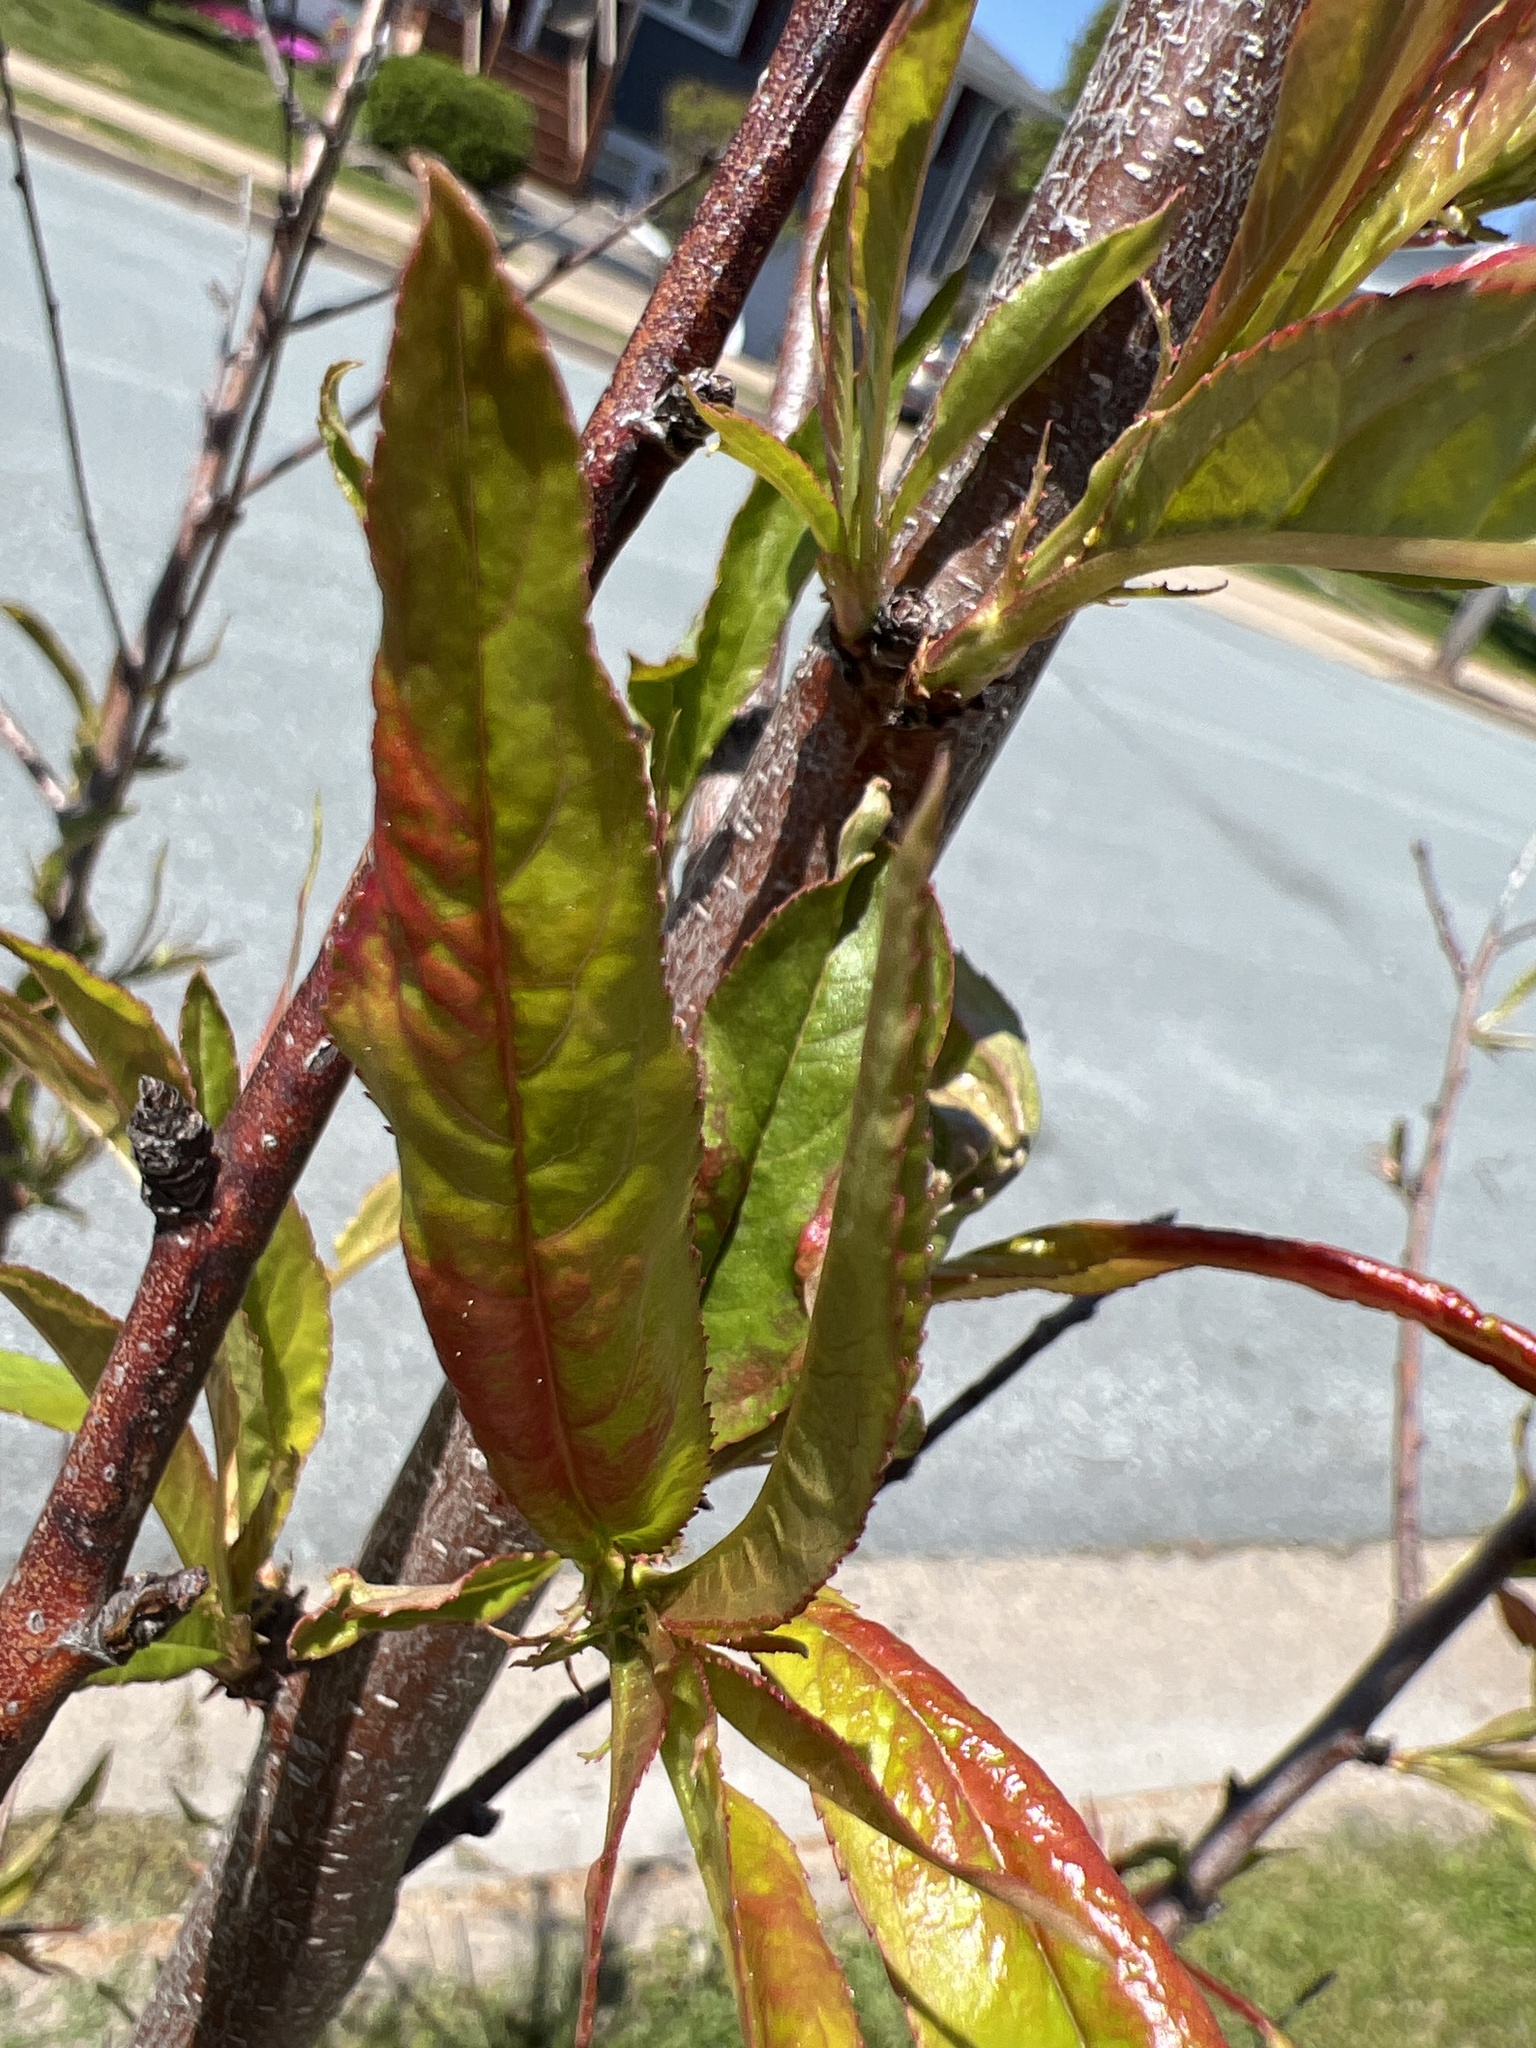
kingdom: Fungi
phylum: Ascomycota
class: Taphrinomycetes
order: Taphrinales
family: Taphrinaceae
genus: Taphrina
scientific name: Taphrina deformans
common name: Peach leaf curl
